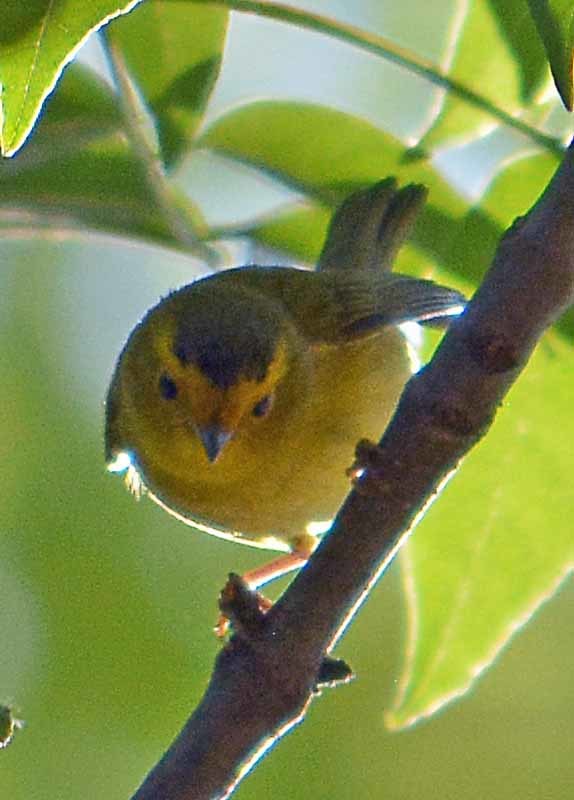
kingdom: Animalia
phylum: Chordata
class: Aves
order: Passeriformes
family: Parulidae
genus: Cardellina
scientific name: Cardellina pusilla
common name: Wilson's warbler
